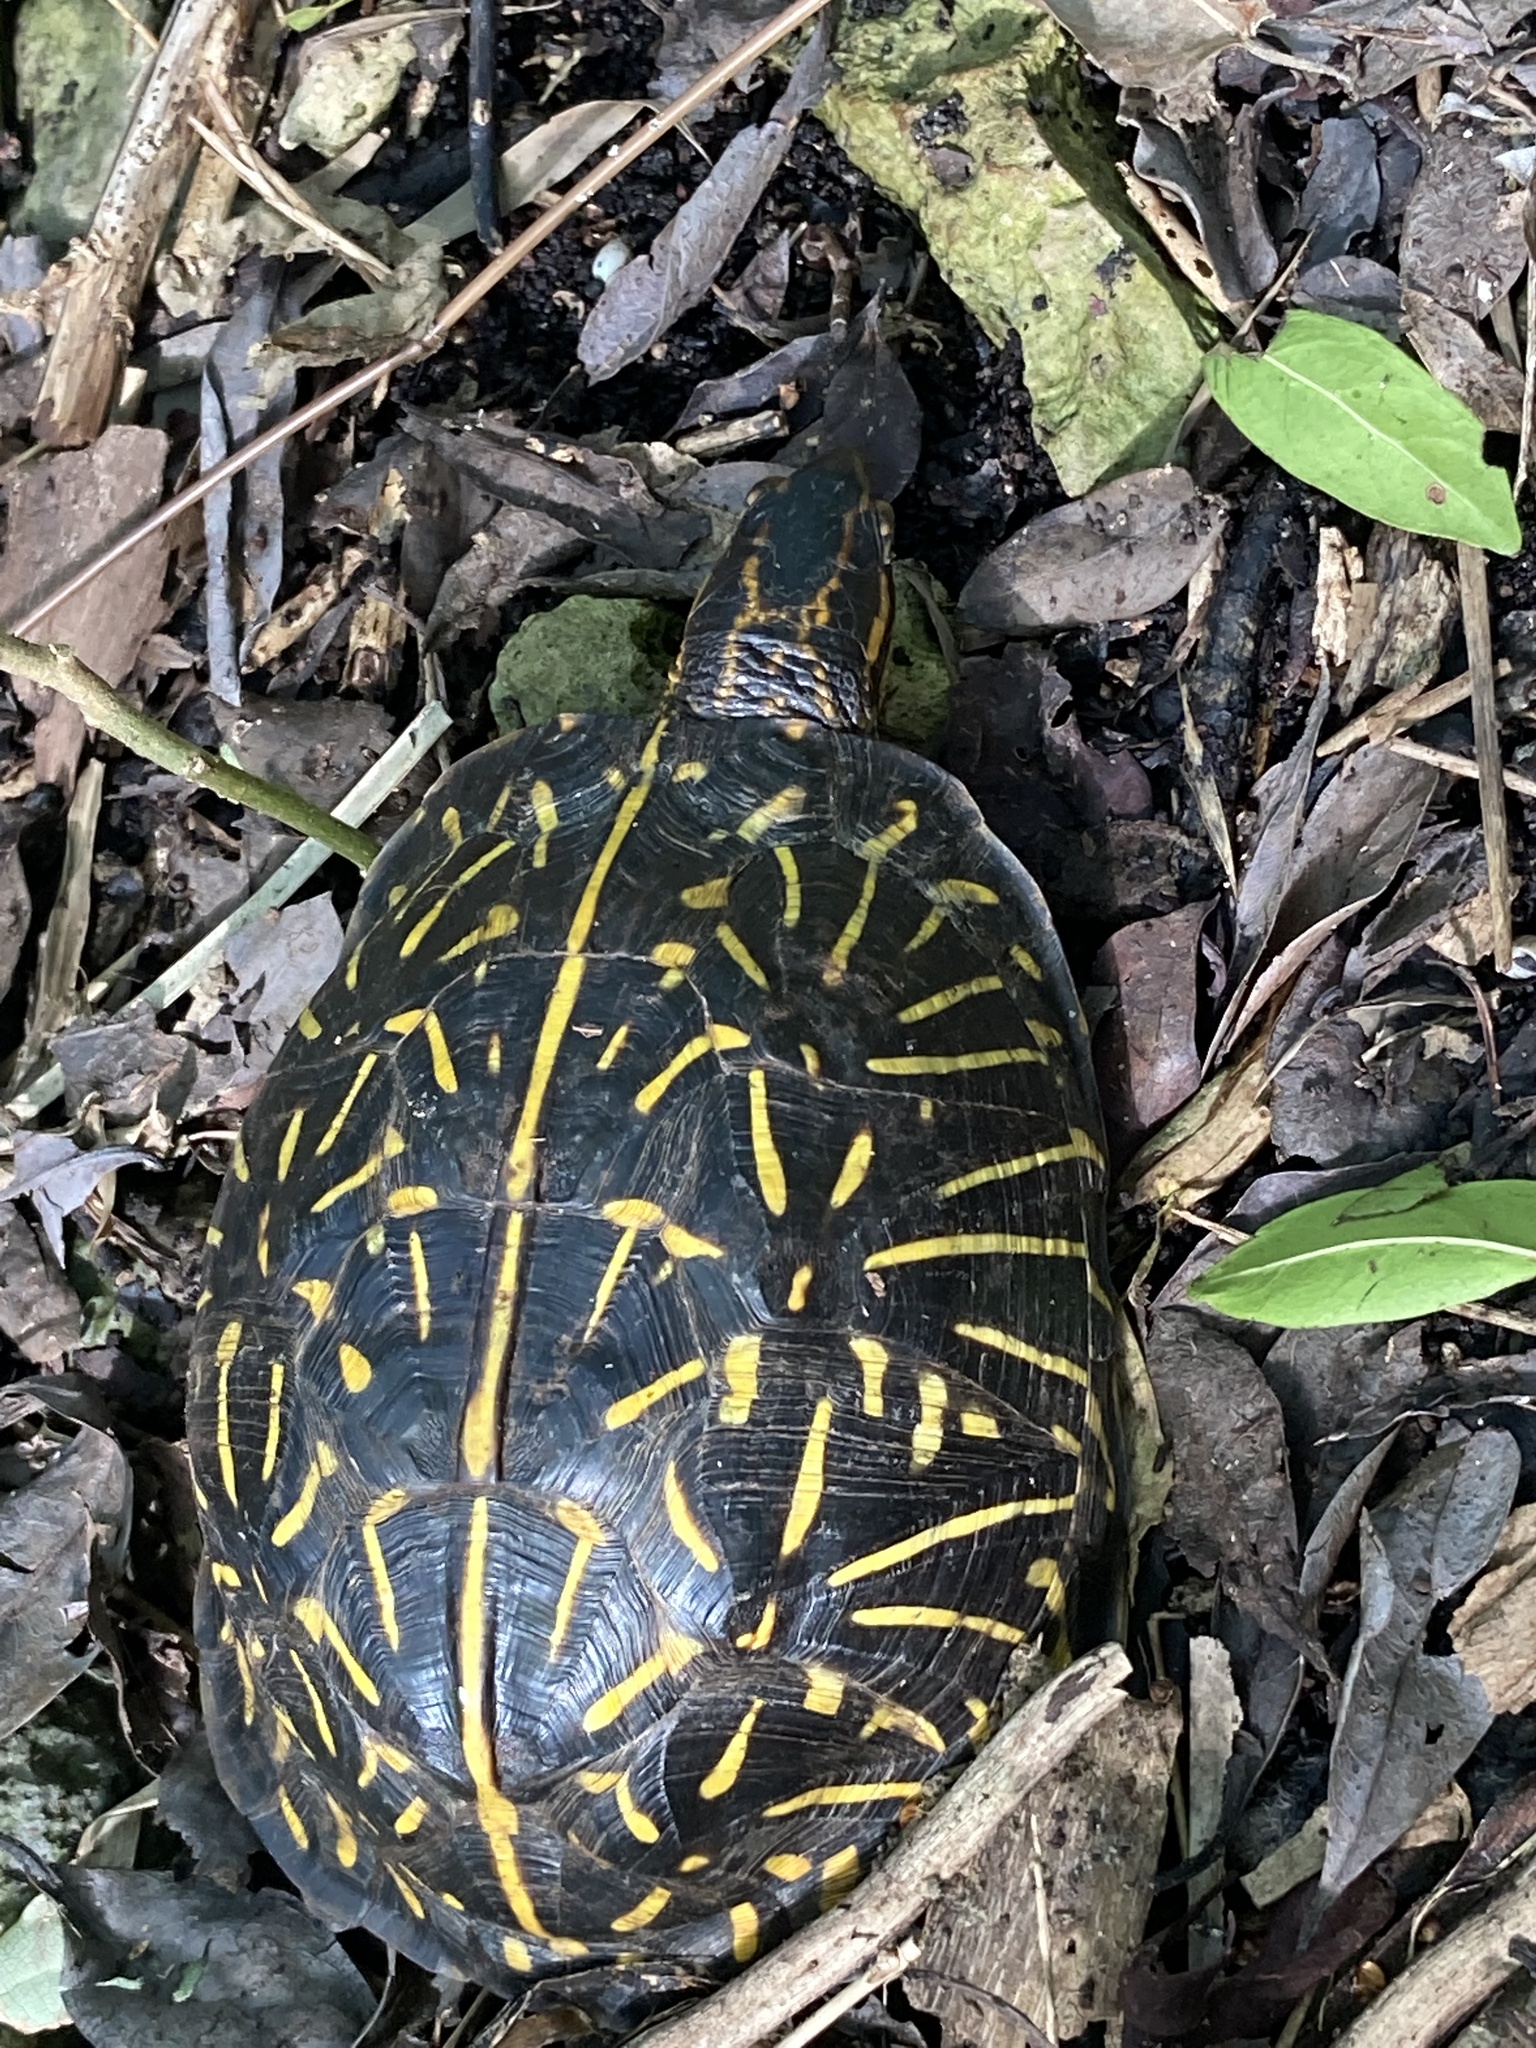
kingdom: Animalia
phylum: Chordata
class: Testudines
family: Emydidae
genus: Terrapene
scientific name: Terrapene carolina
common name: Common box turtle
